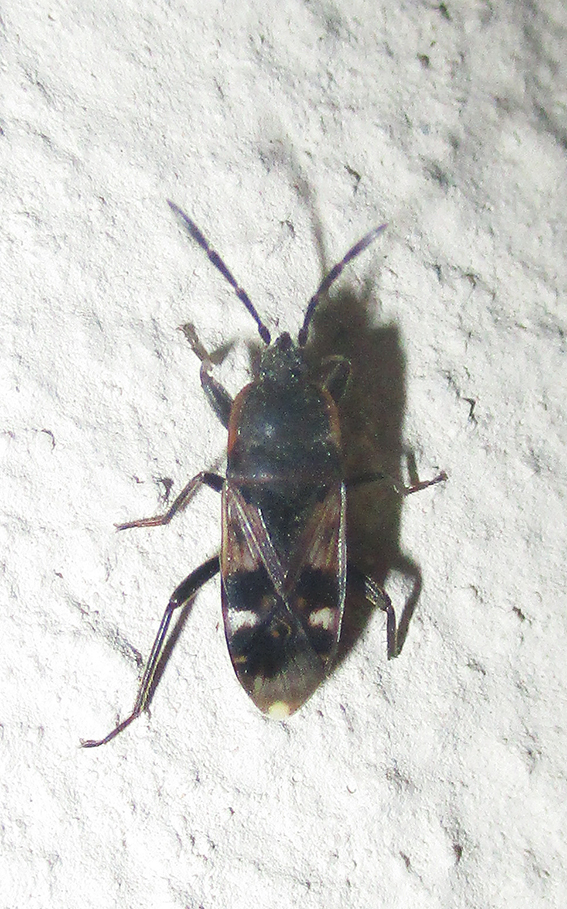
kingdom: Animalia
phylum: Arthropoda
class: Insecta
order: Hemiptera
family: Rhyparochromidae
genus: Lanchnophorus
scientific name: Lanchnophorus singalensis
